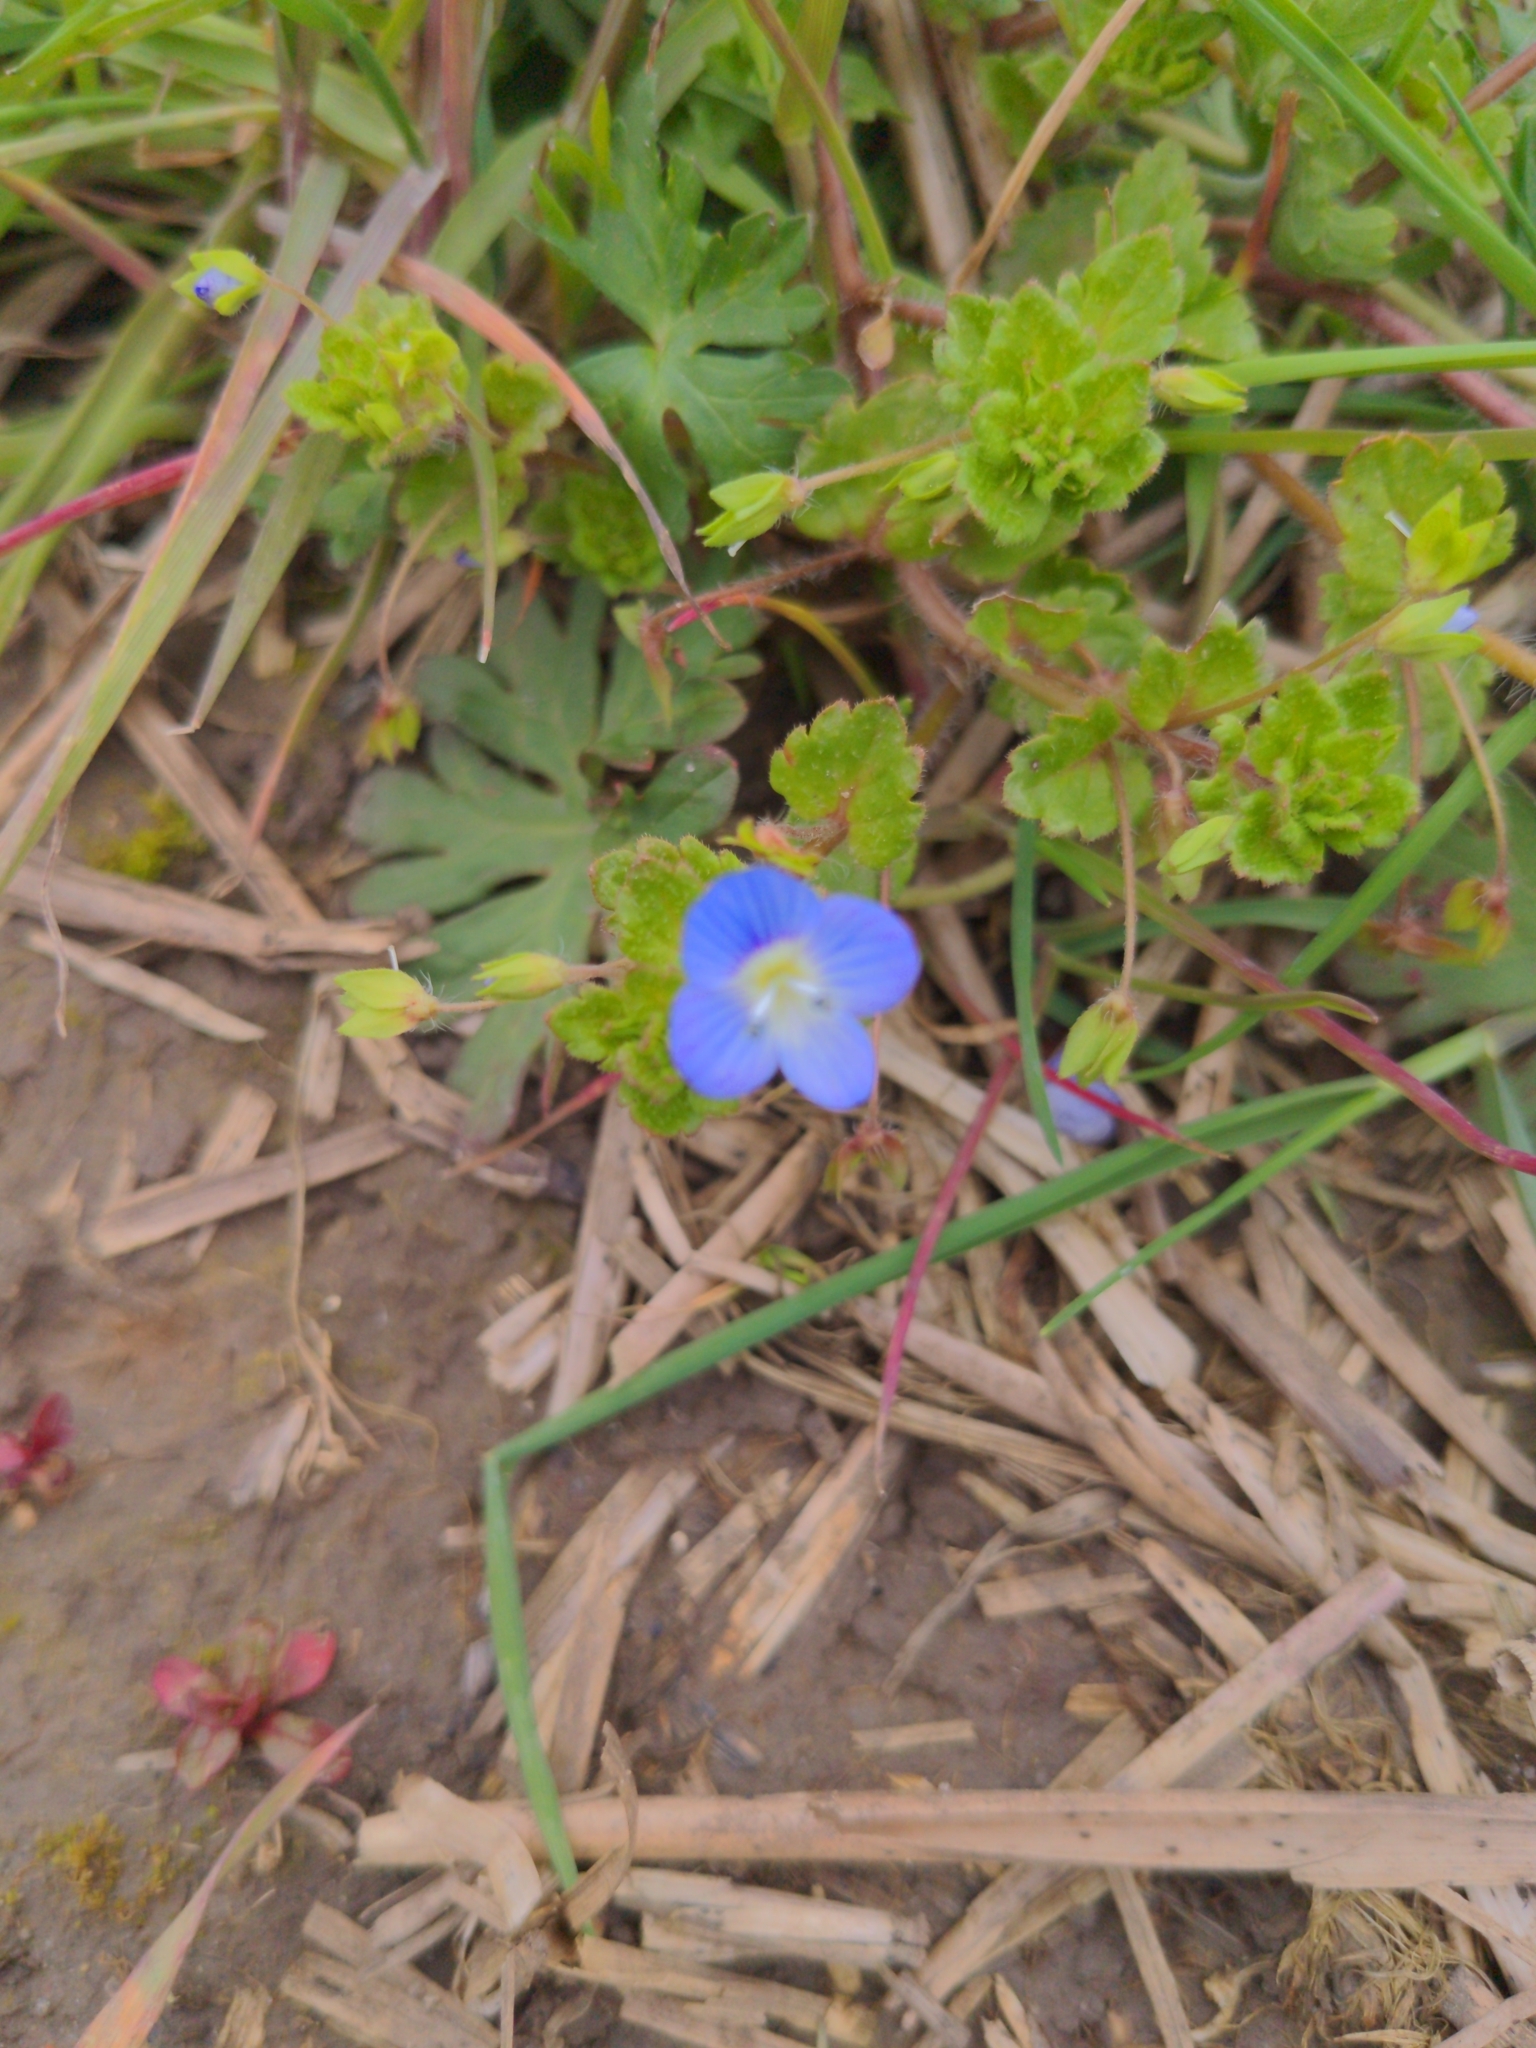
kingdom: Plantae
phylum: Tracheophyta
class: Magnoliopsida
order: Lamiales
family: Plantaginaceae
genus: Veronica
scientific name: Veronica persica
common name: Common field-speedwell
